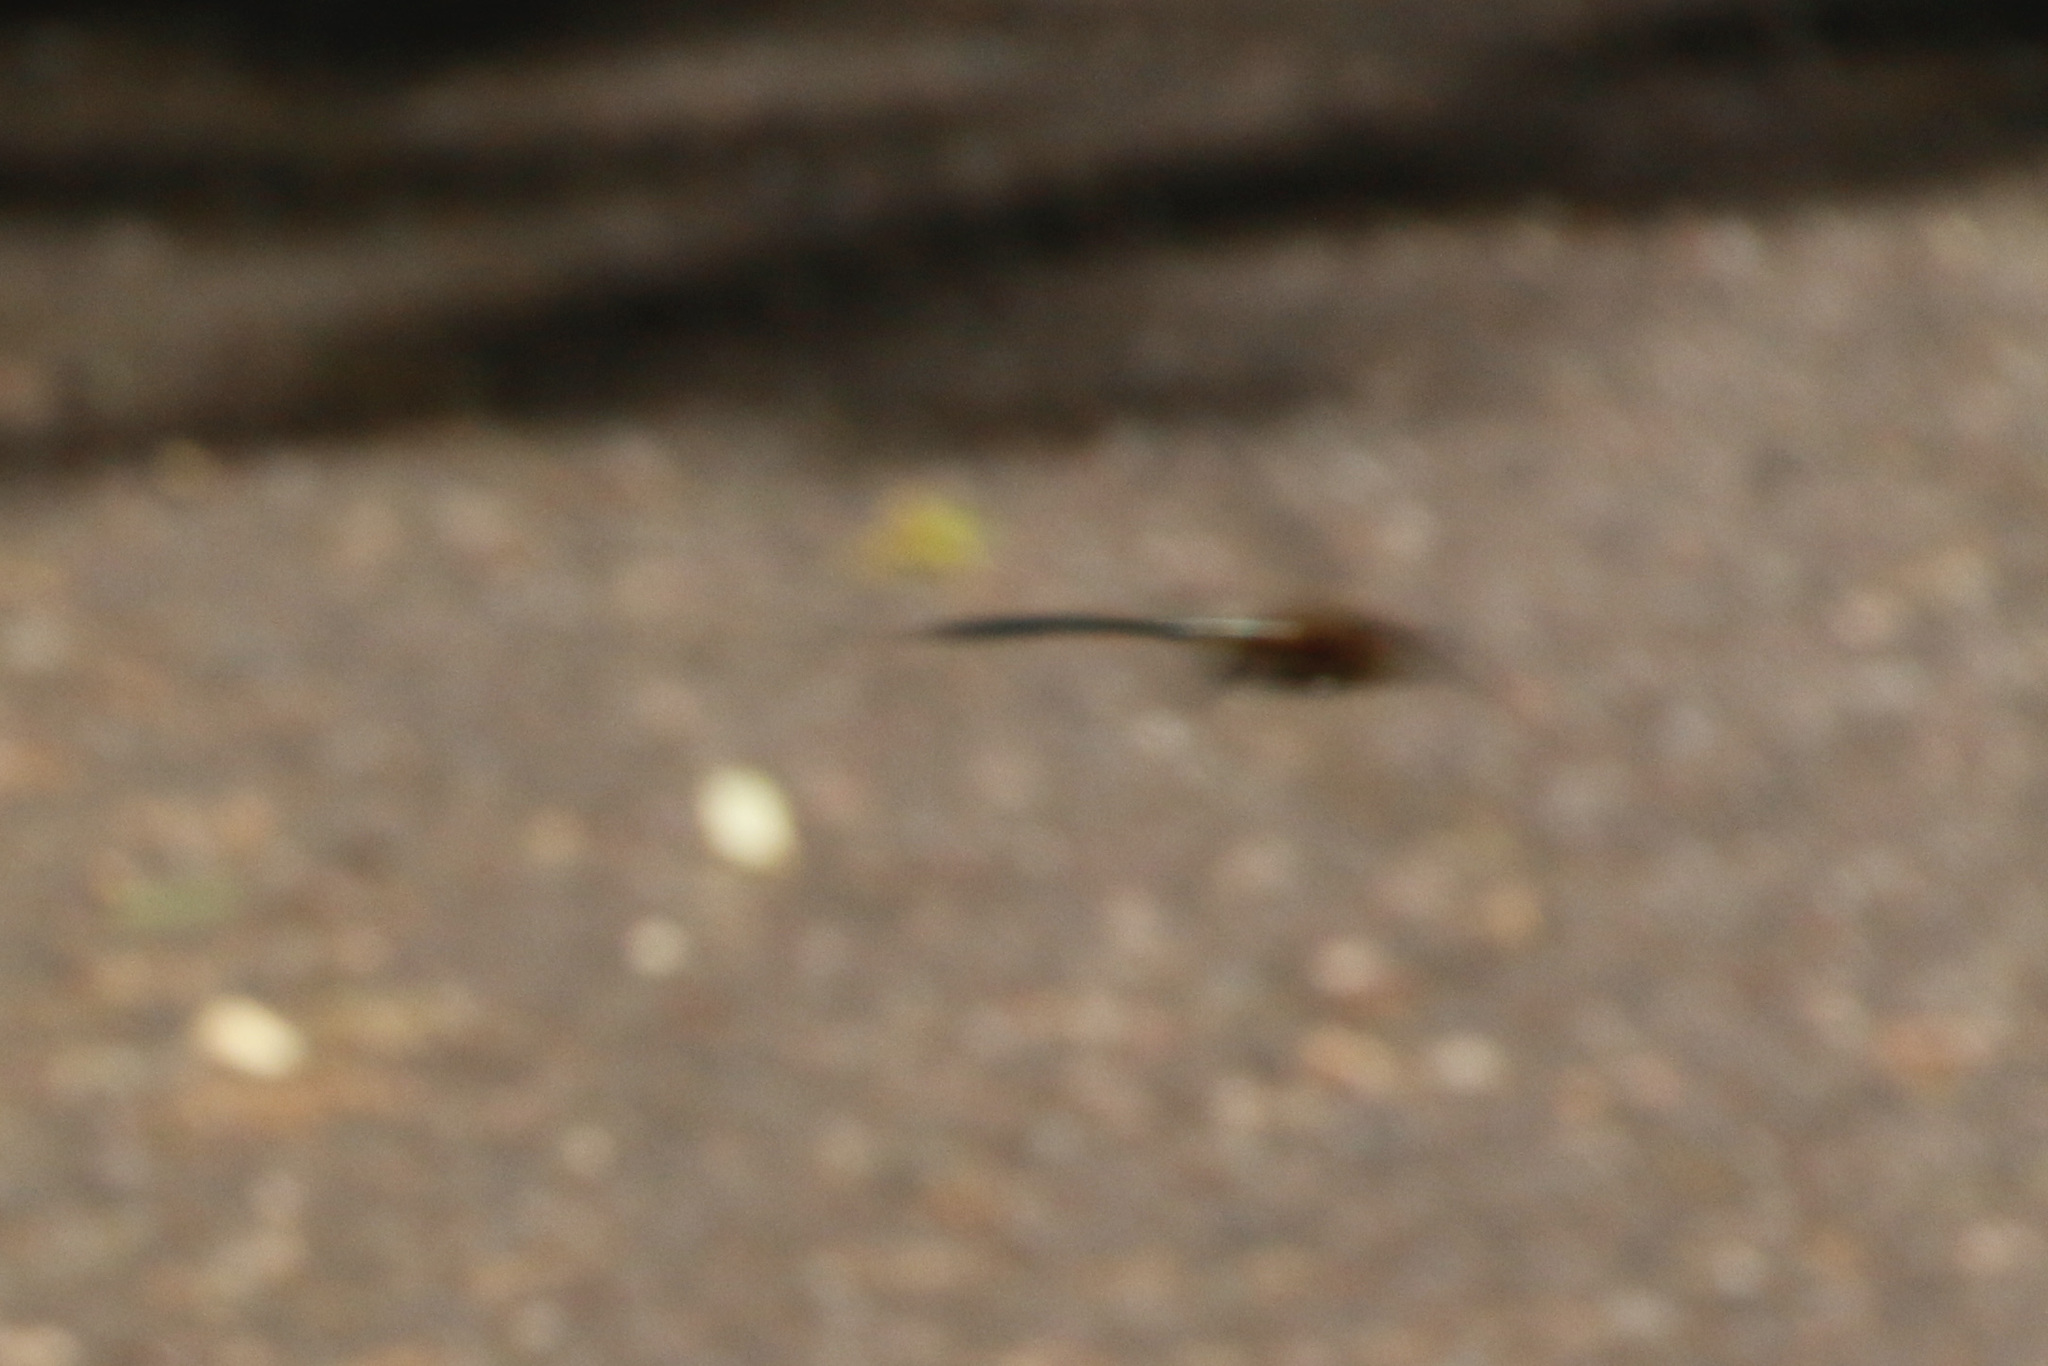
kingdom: Animalia
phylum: Arthropoda
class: Insecta
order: Odonata
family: Corduliidae
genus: Dorocordulia
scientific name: Dorocordulia libera
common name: Racket-tailed emerald
